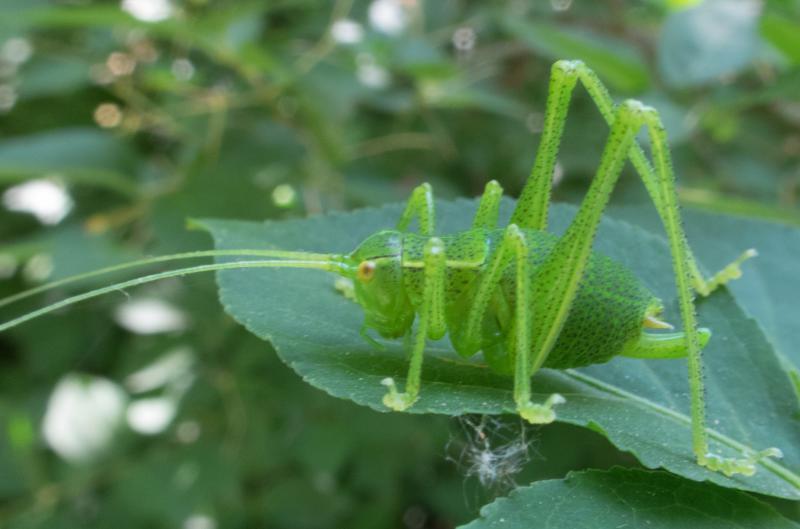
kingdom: Animalia
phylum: Arthropoda
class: Insecta
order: Orthoptera
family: Tettigoniidae
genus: Barbitistes
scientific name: Barbitistes serricauda
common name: Saw-tailed bush-cricket
